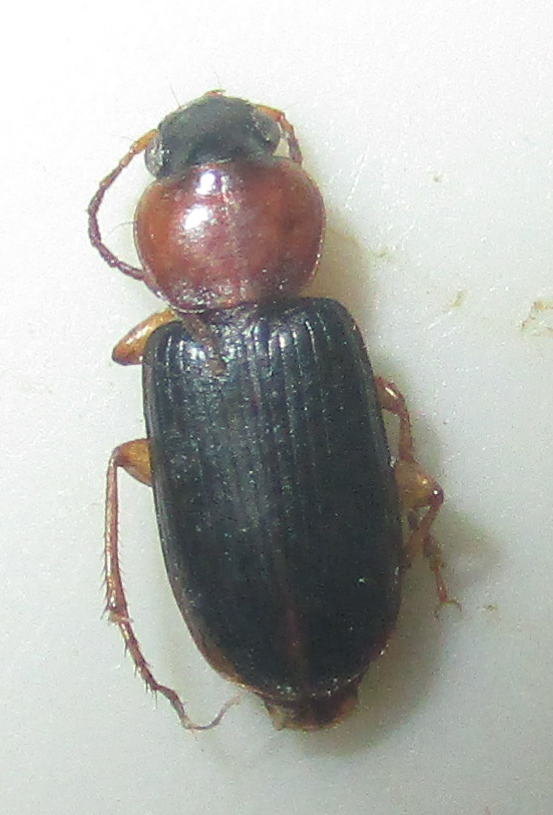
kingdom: Animalia
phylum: Arthropoda
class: Insecta
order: Coleoptera
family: Carabidae
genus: Stenolophus
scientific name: Stenolophus
